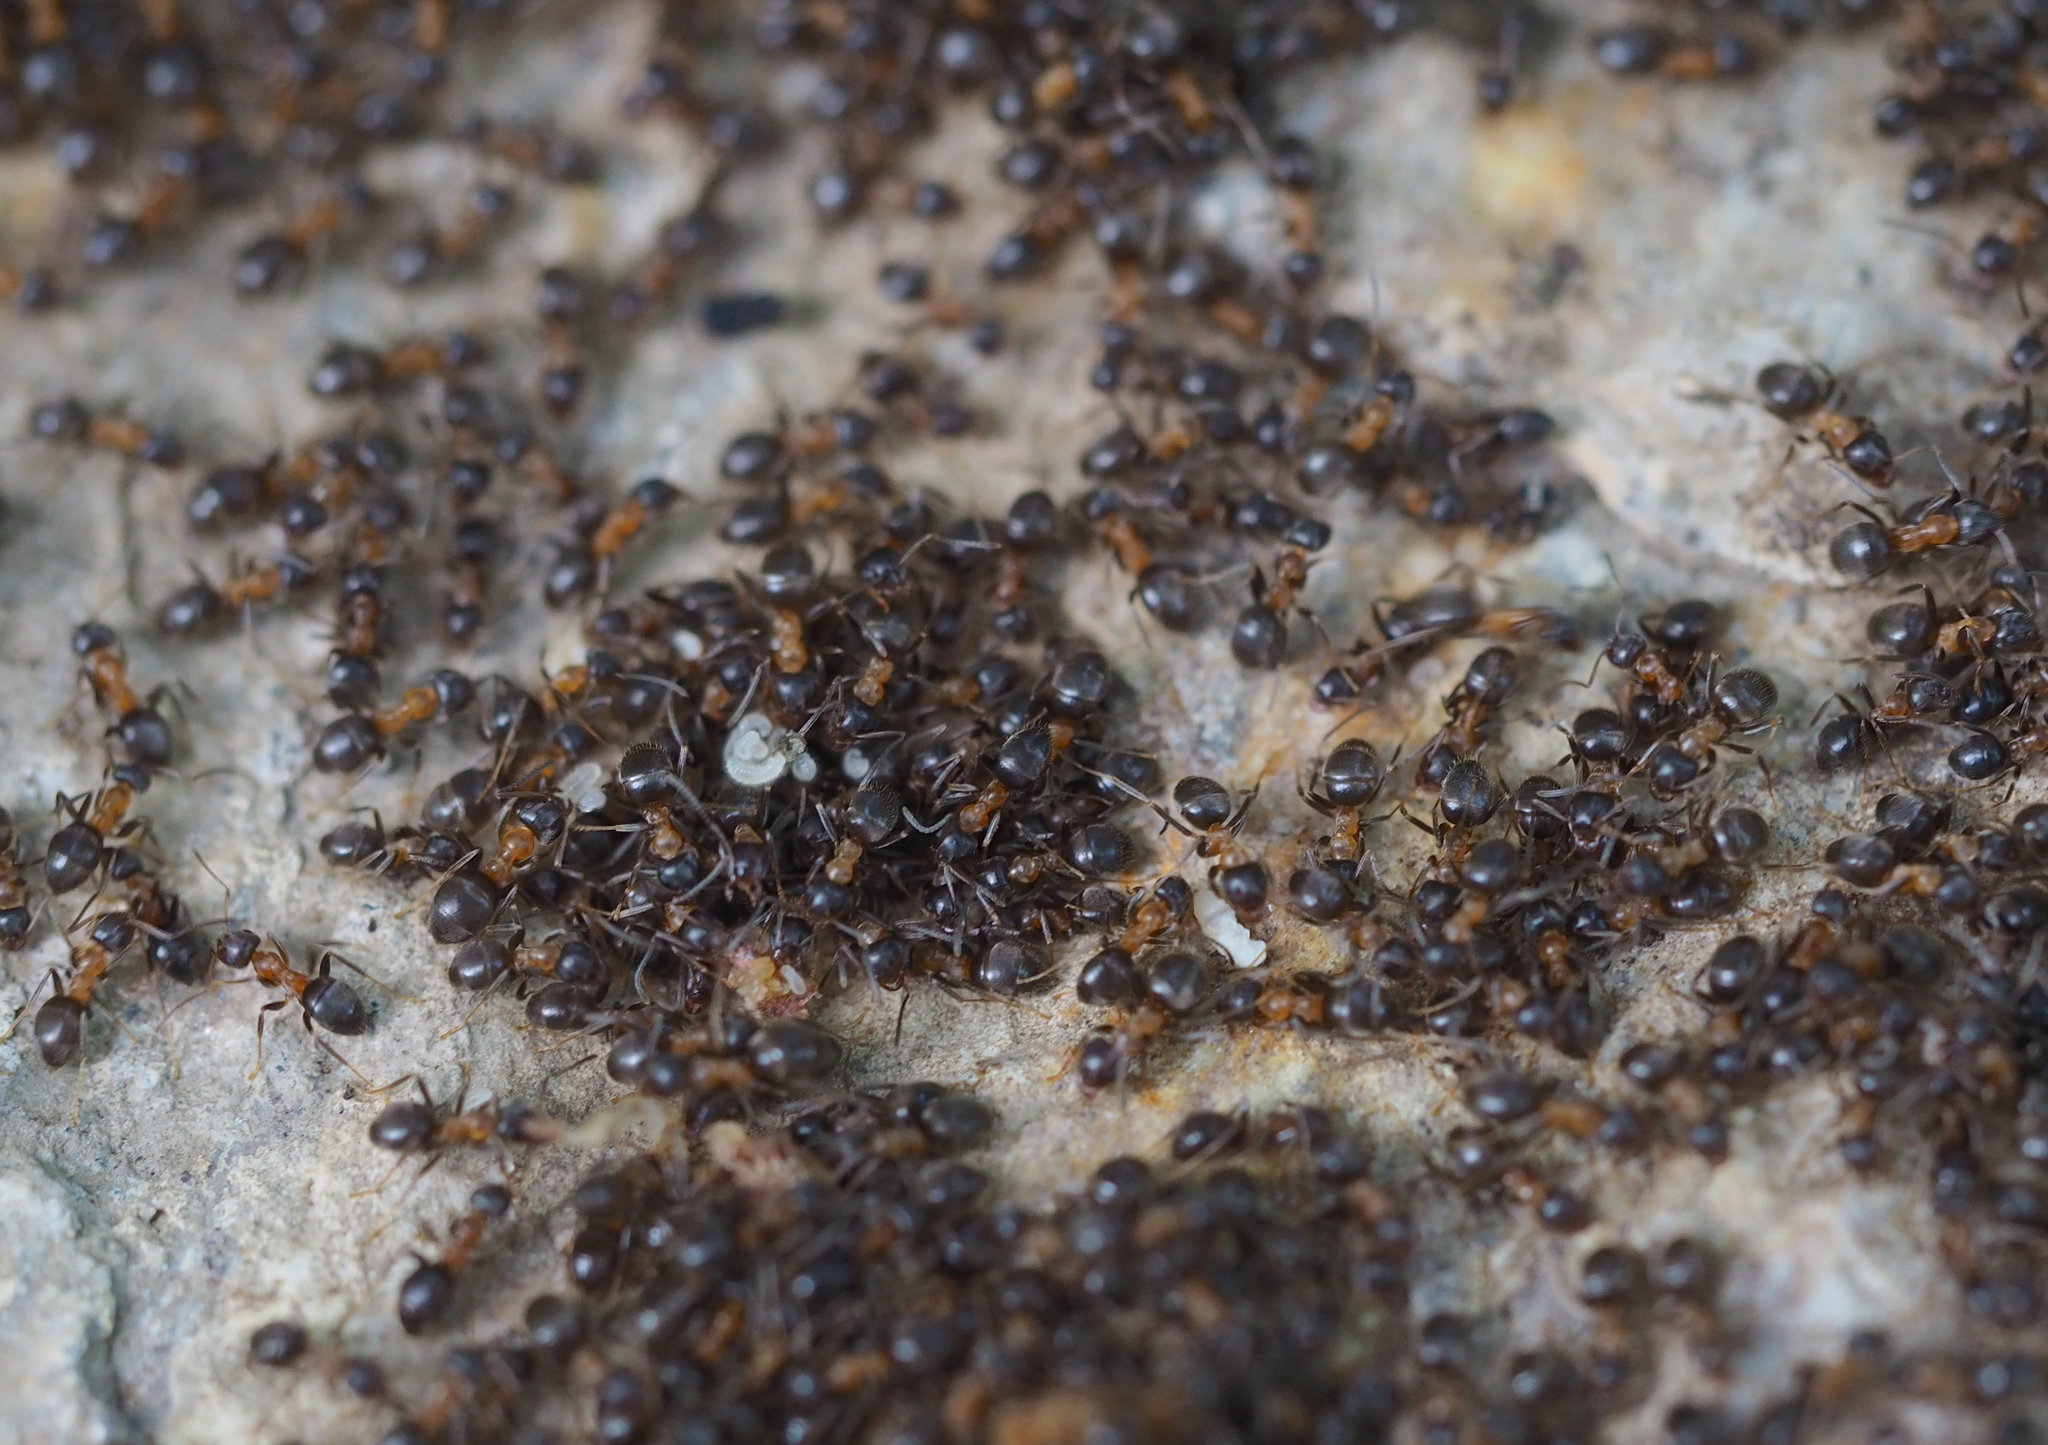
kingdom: Animalia
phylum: Arthropoda
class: Insecta
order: Hymenoptera
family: Formicidae
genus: Lasius
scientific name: Lasius emarginatus
